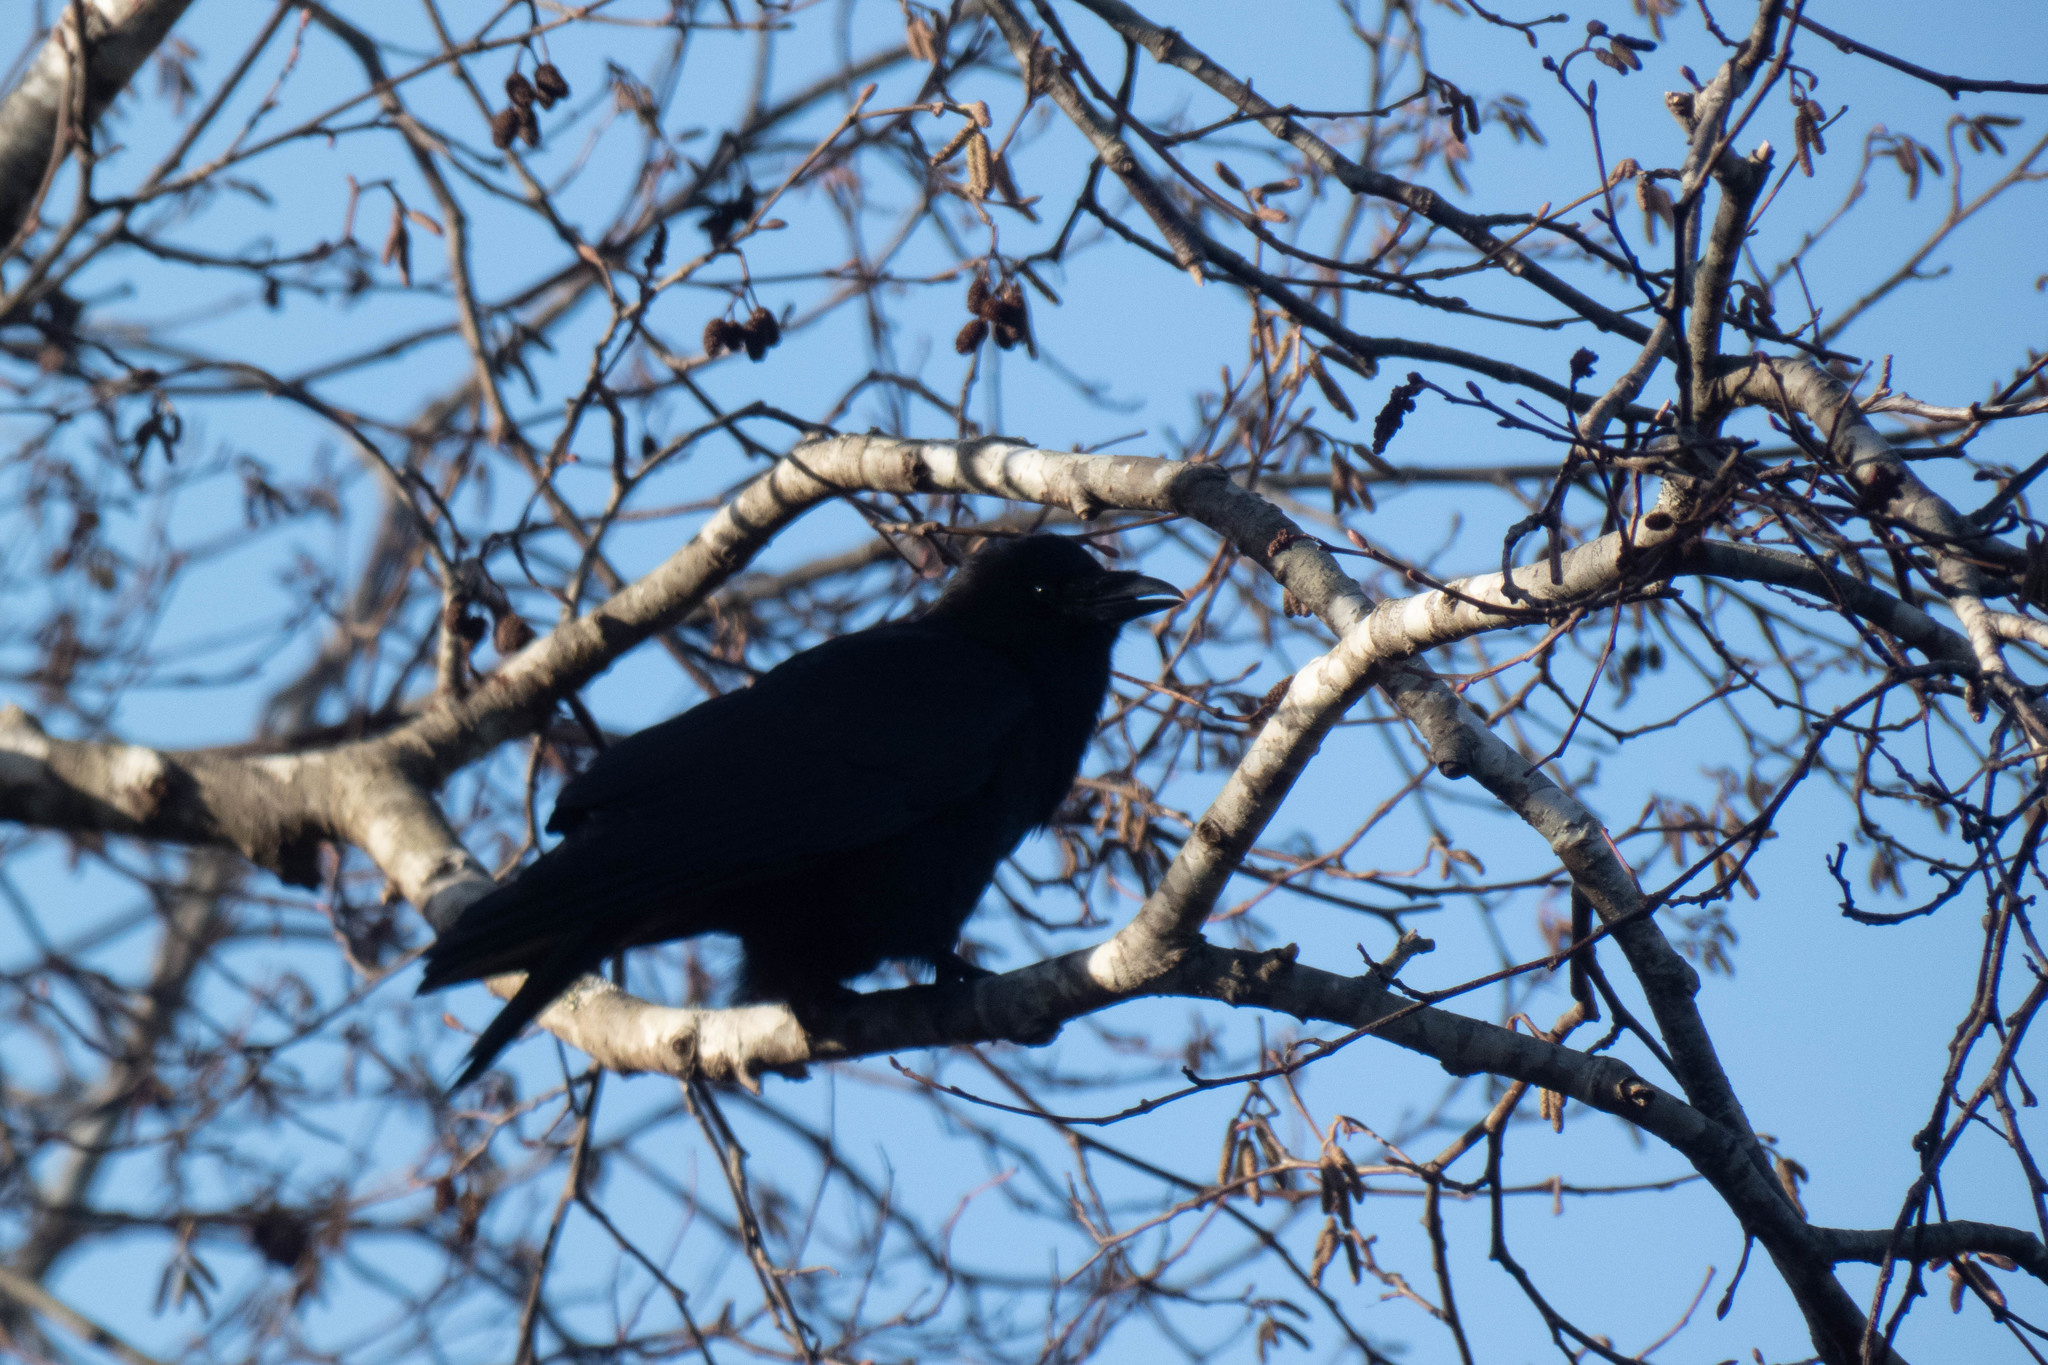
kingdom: Animalia
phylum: Chordata
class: Aves
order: Passeriformes
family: Corvidae
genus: Corvus
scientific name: Corvus brachyrhynchos
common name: American crow
